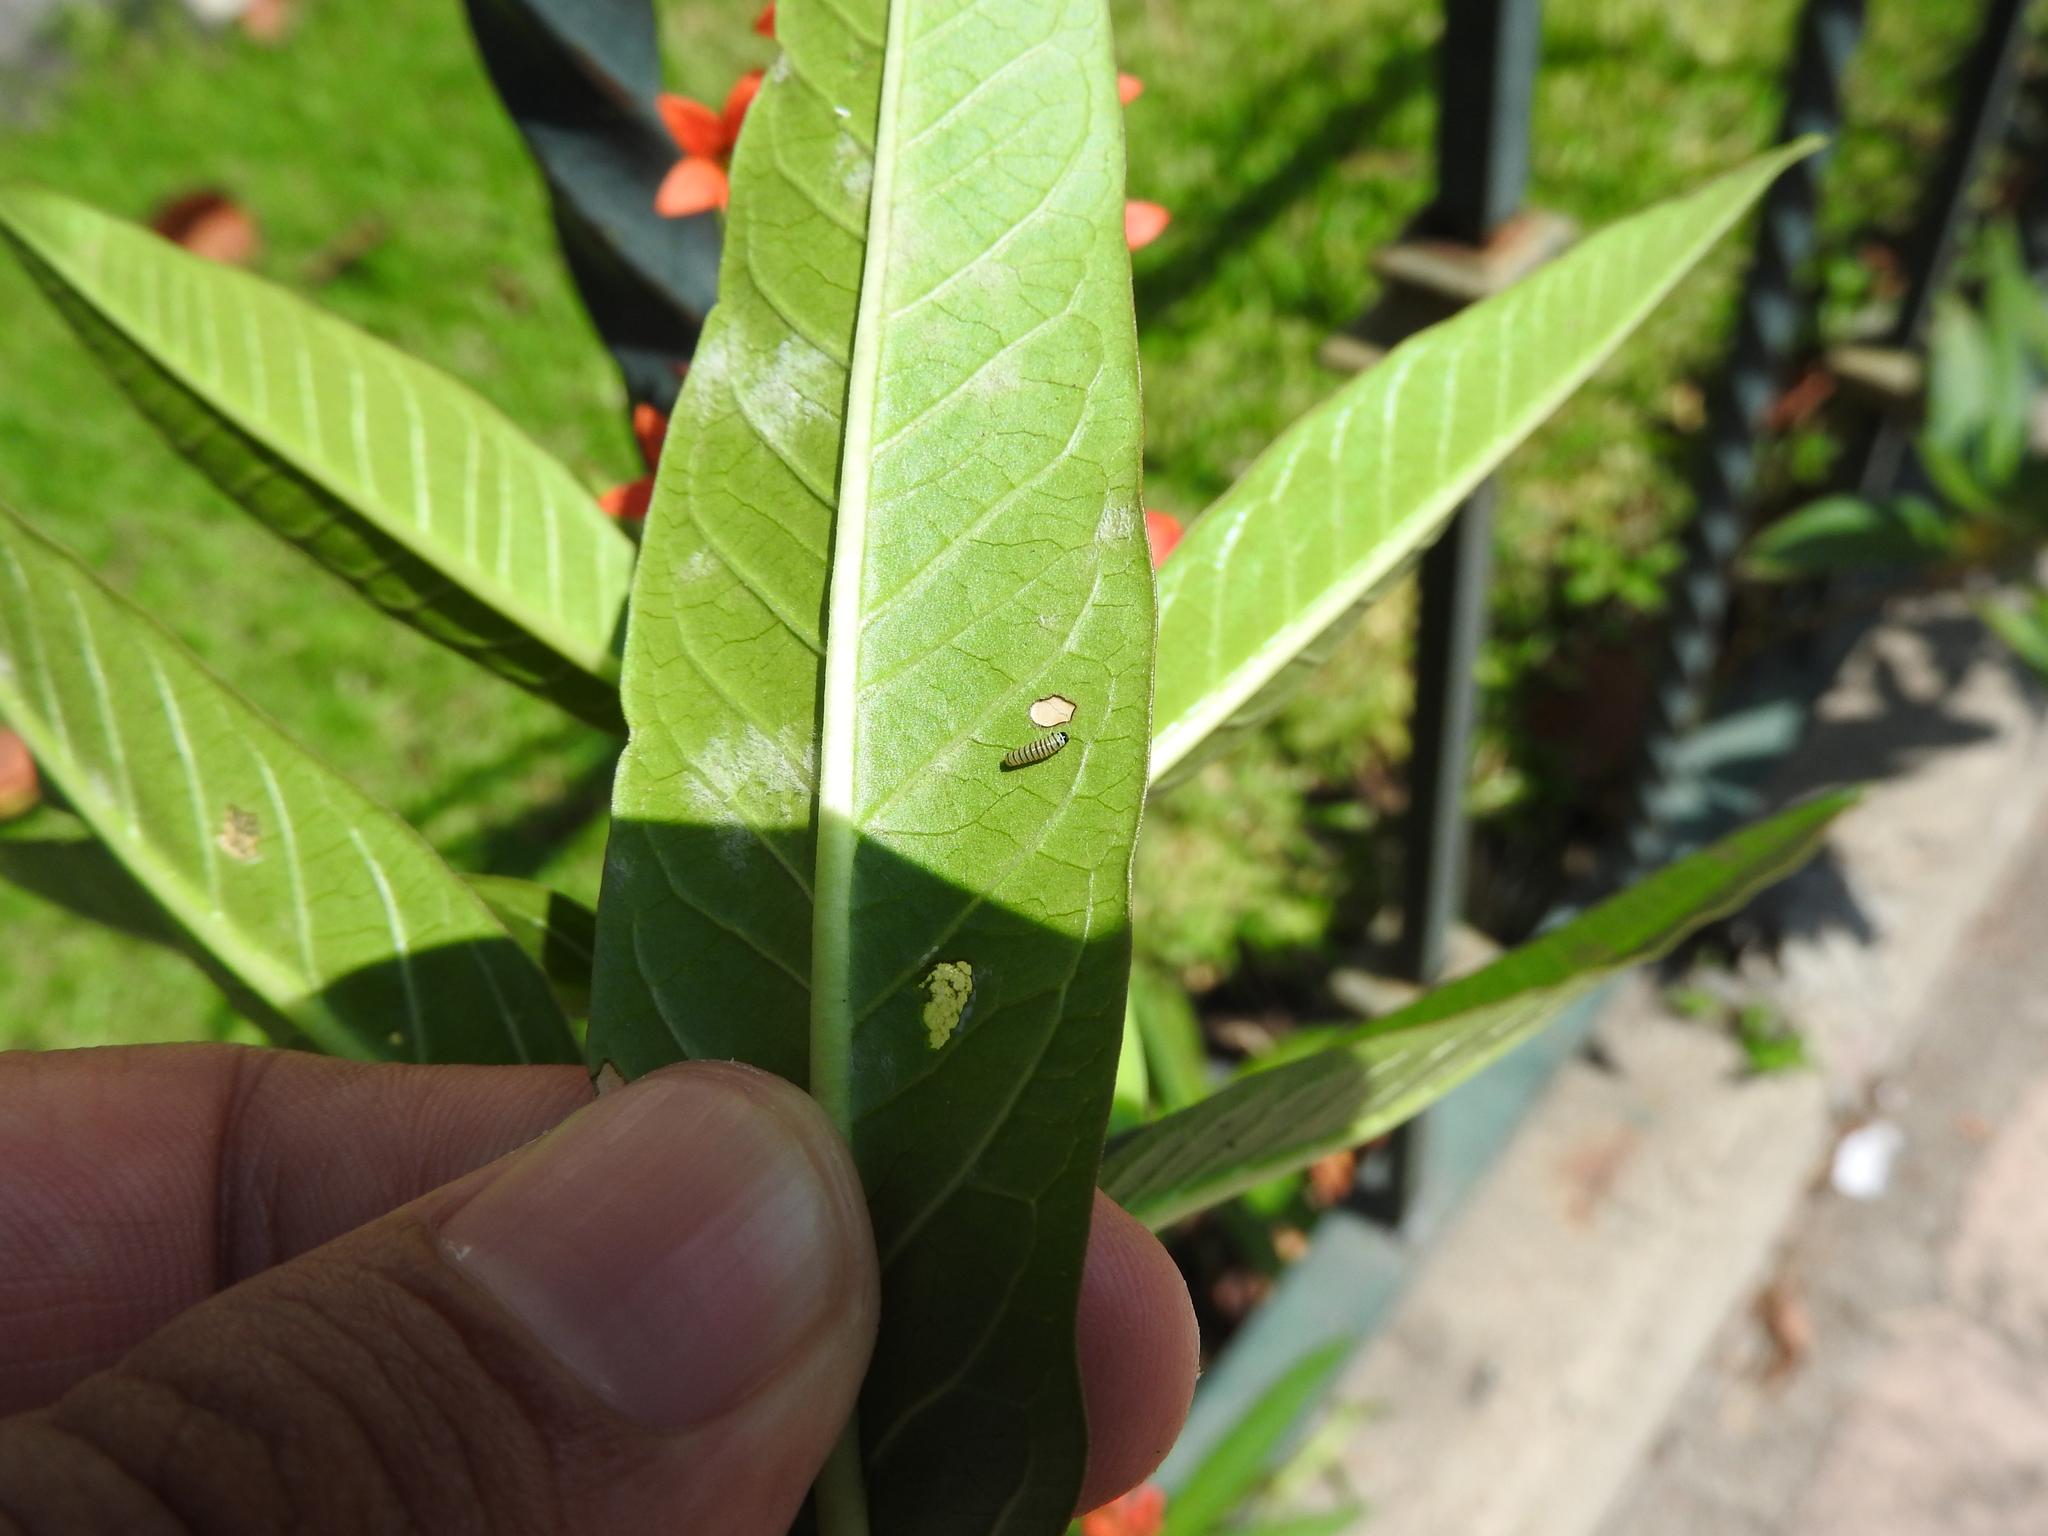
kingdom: Animalia
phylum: Arthropoda
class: Insecta
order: Lepidoptera
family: Nymphalidae
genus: Danaus
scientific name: Danaus plexippus
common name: Monarch
